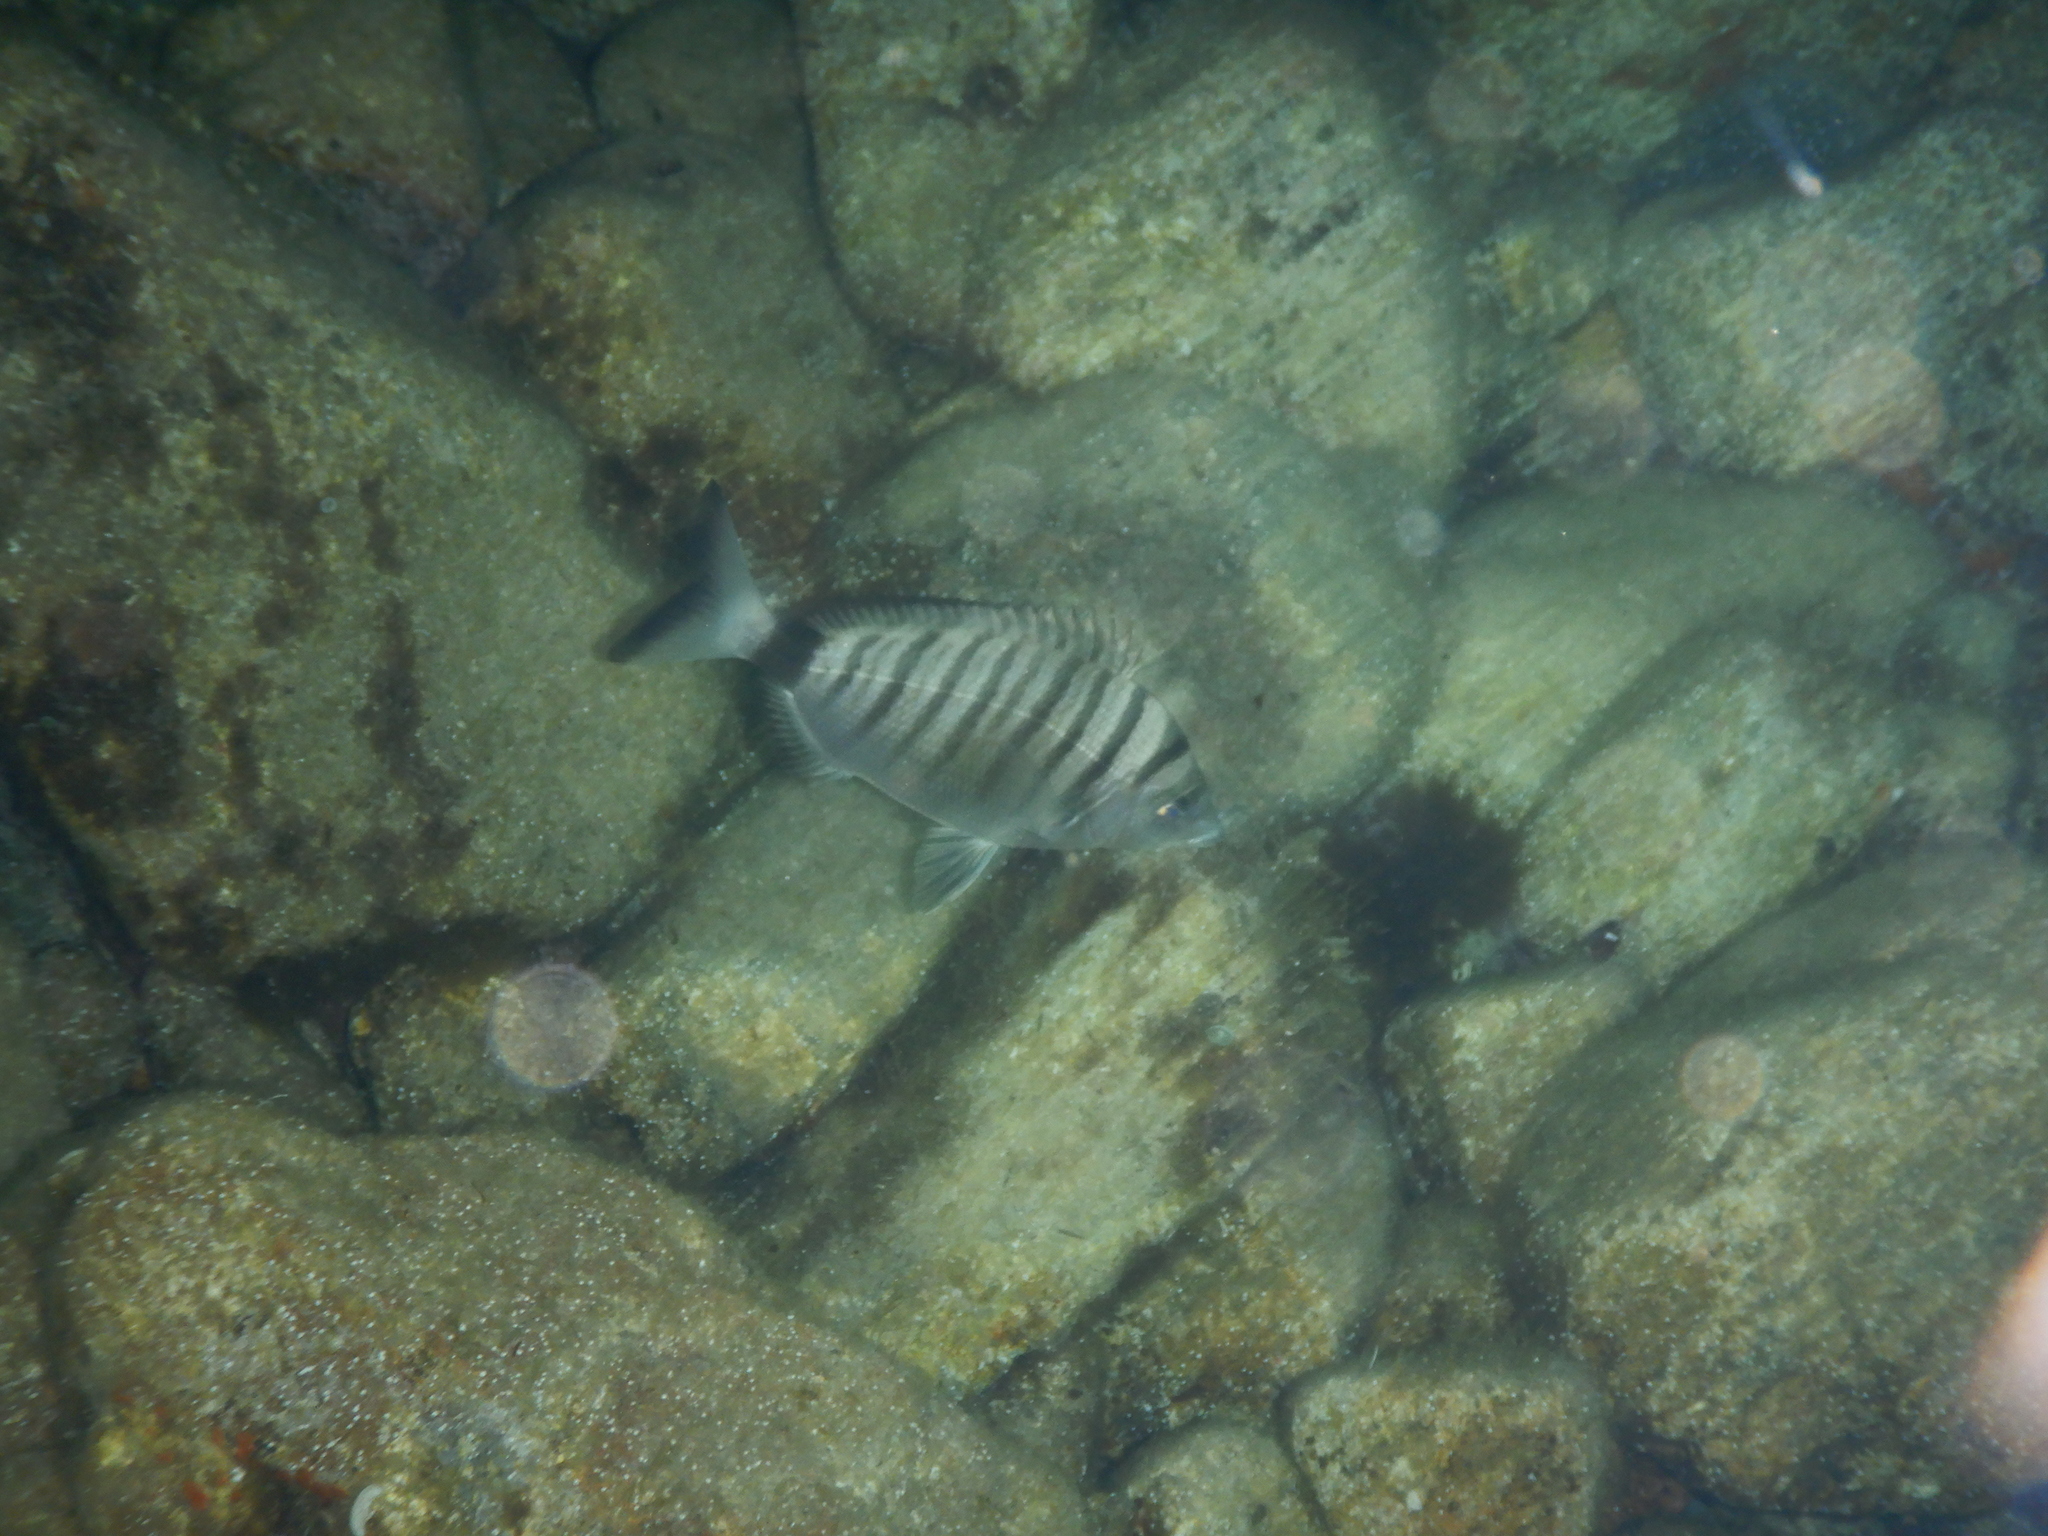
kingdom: Animalia
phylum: Chordata
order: Perciformes
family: Sparidae
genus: Diplodus
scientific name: Diplodus puntazzo
